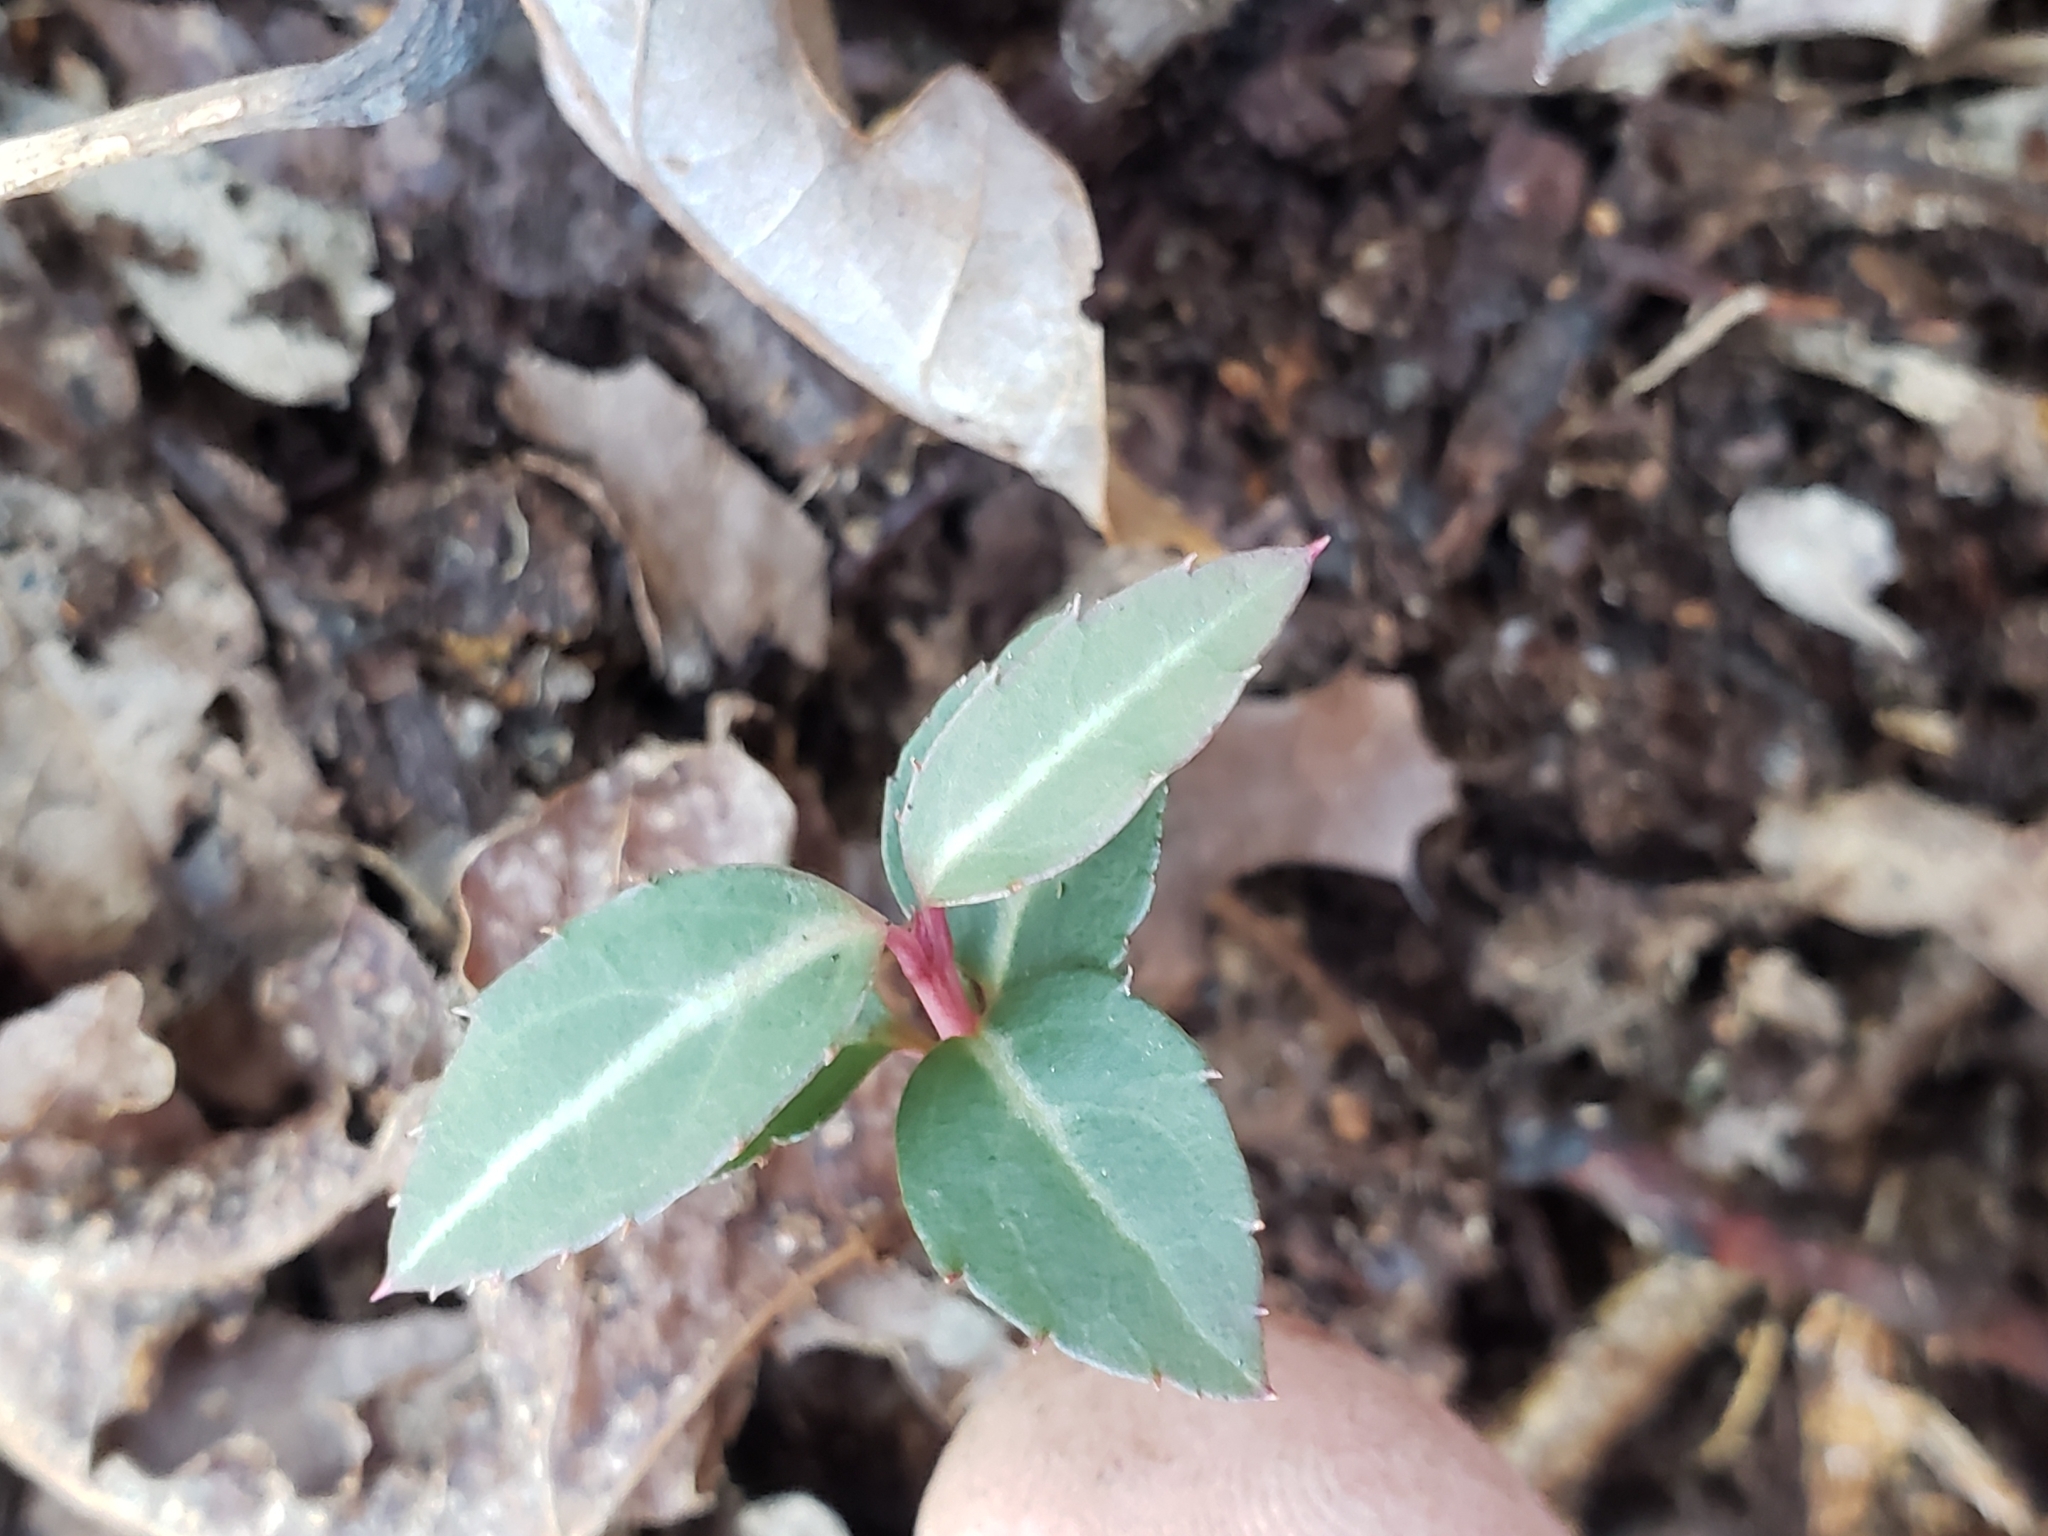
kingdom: Plantae
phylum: Tracheophyta
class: Magnoliopsida
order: Ericales
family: Ericaceae
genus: Chimaphila
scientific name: Chimaphila maculata
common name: Spotted pipsissewa
